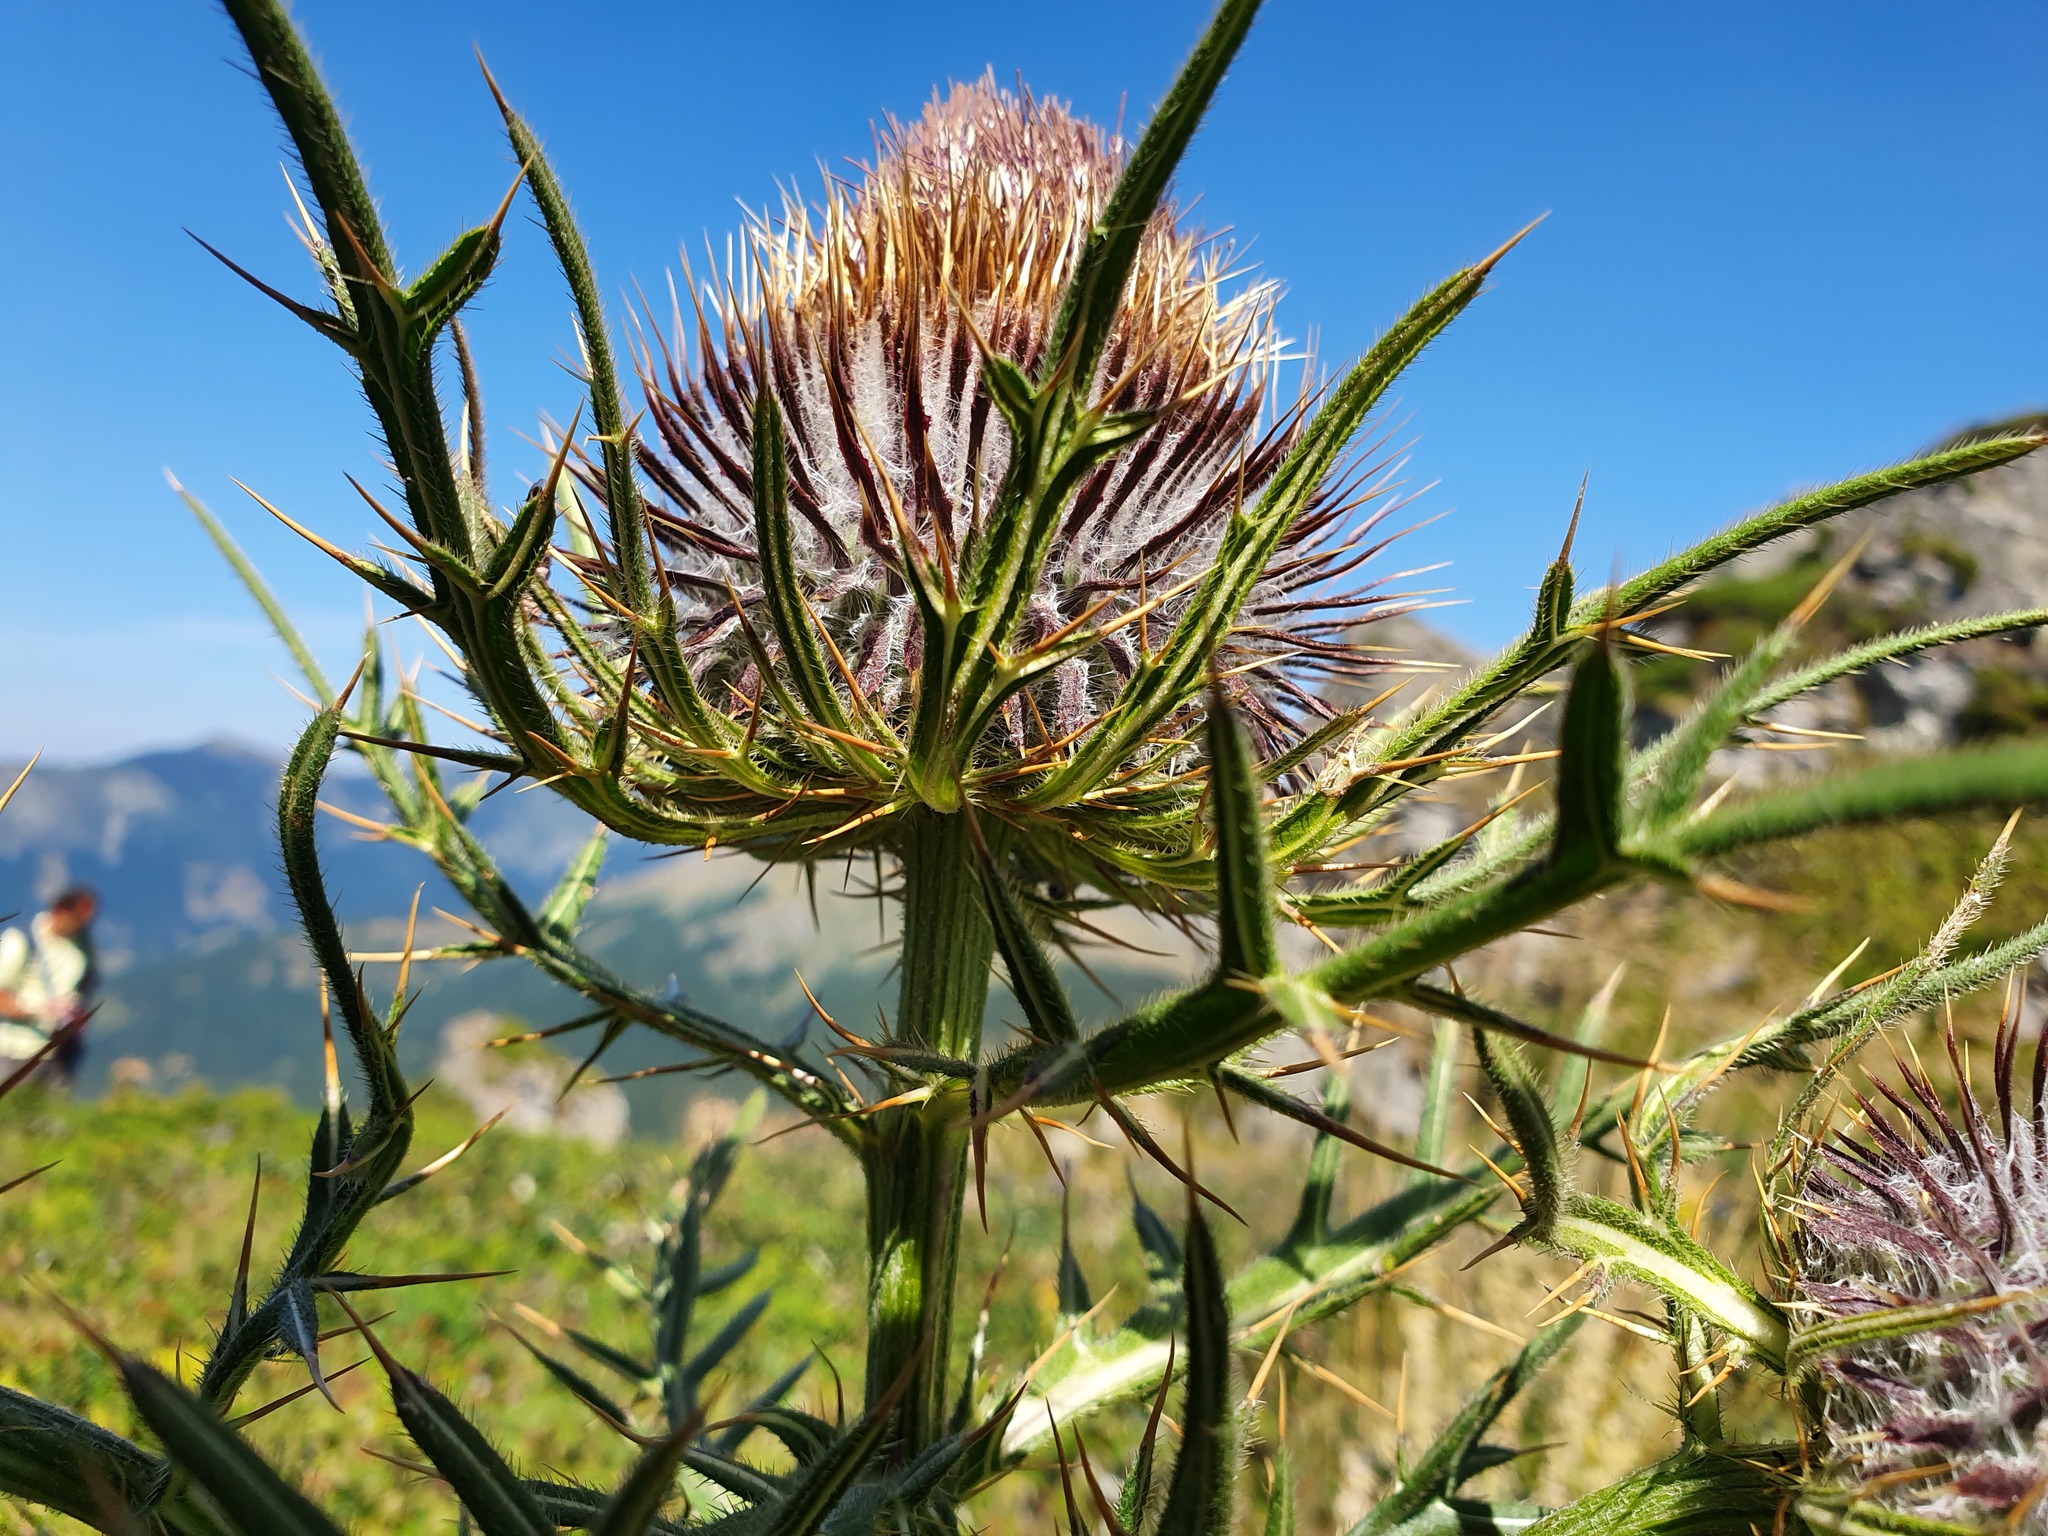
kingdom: Plantae
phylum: Tracheophyta
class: Magnoliopsida
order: Asterales
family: Asteraceae
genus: Lophiolepis
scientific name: Lophiolepis eriophora
